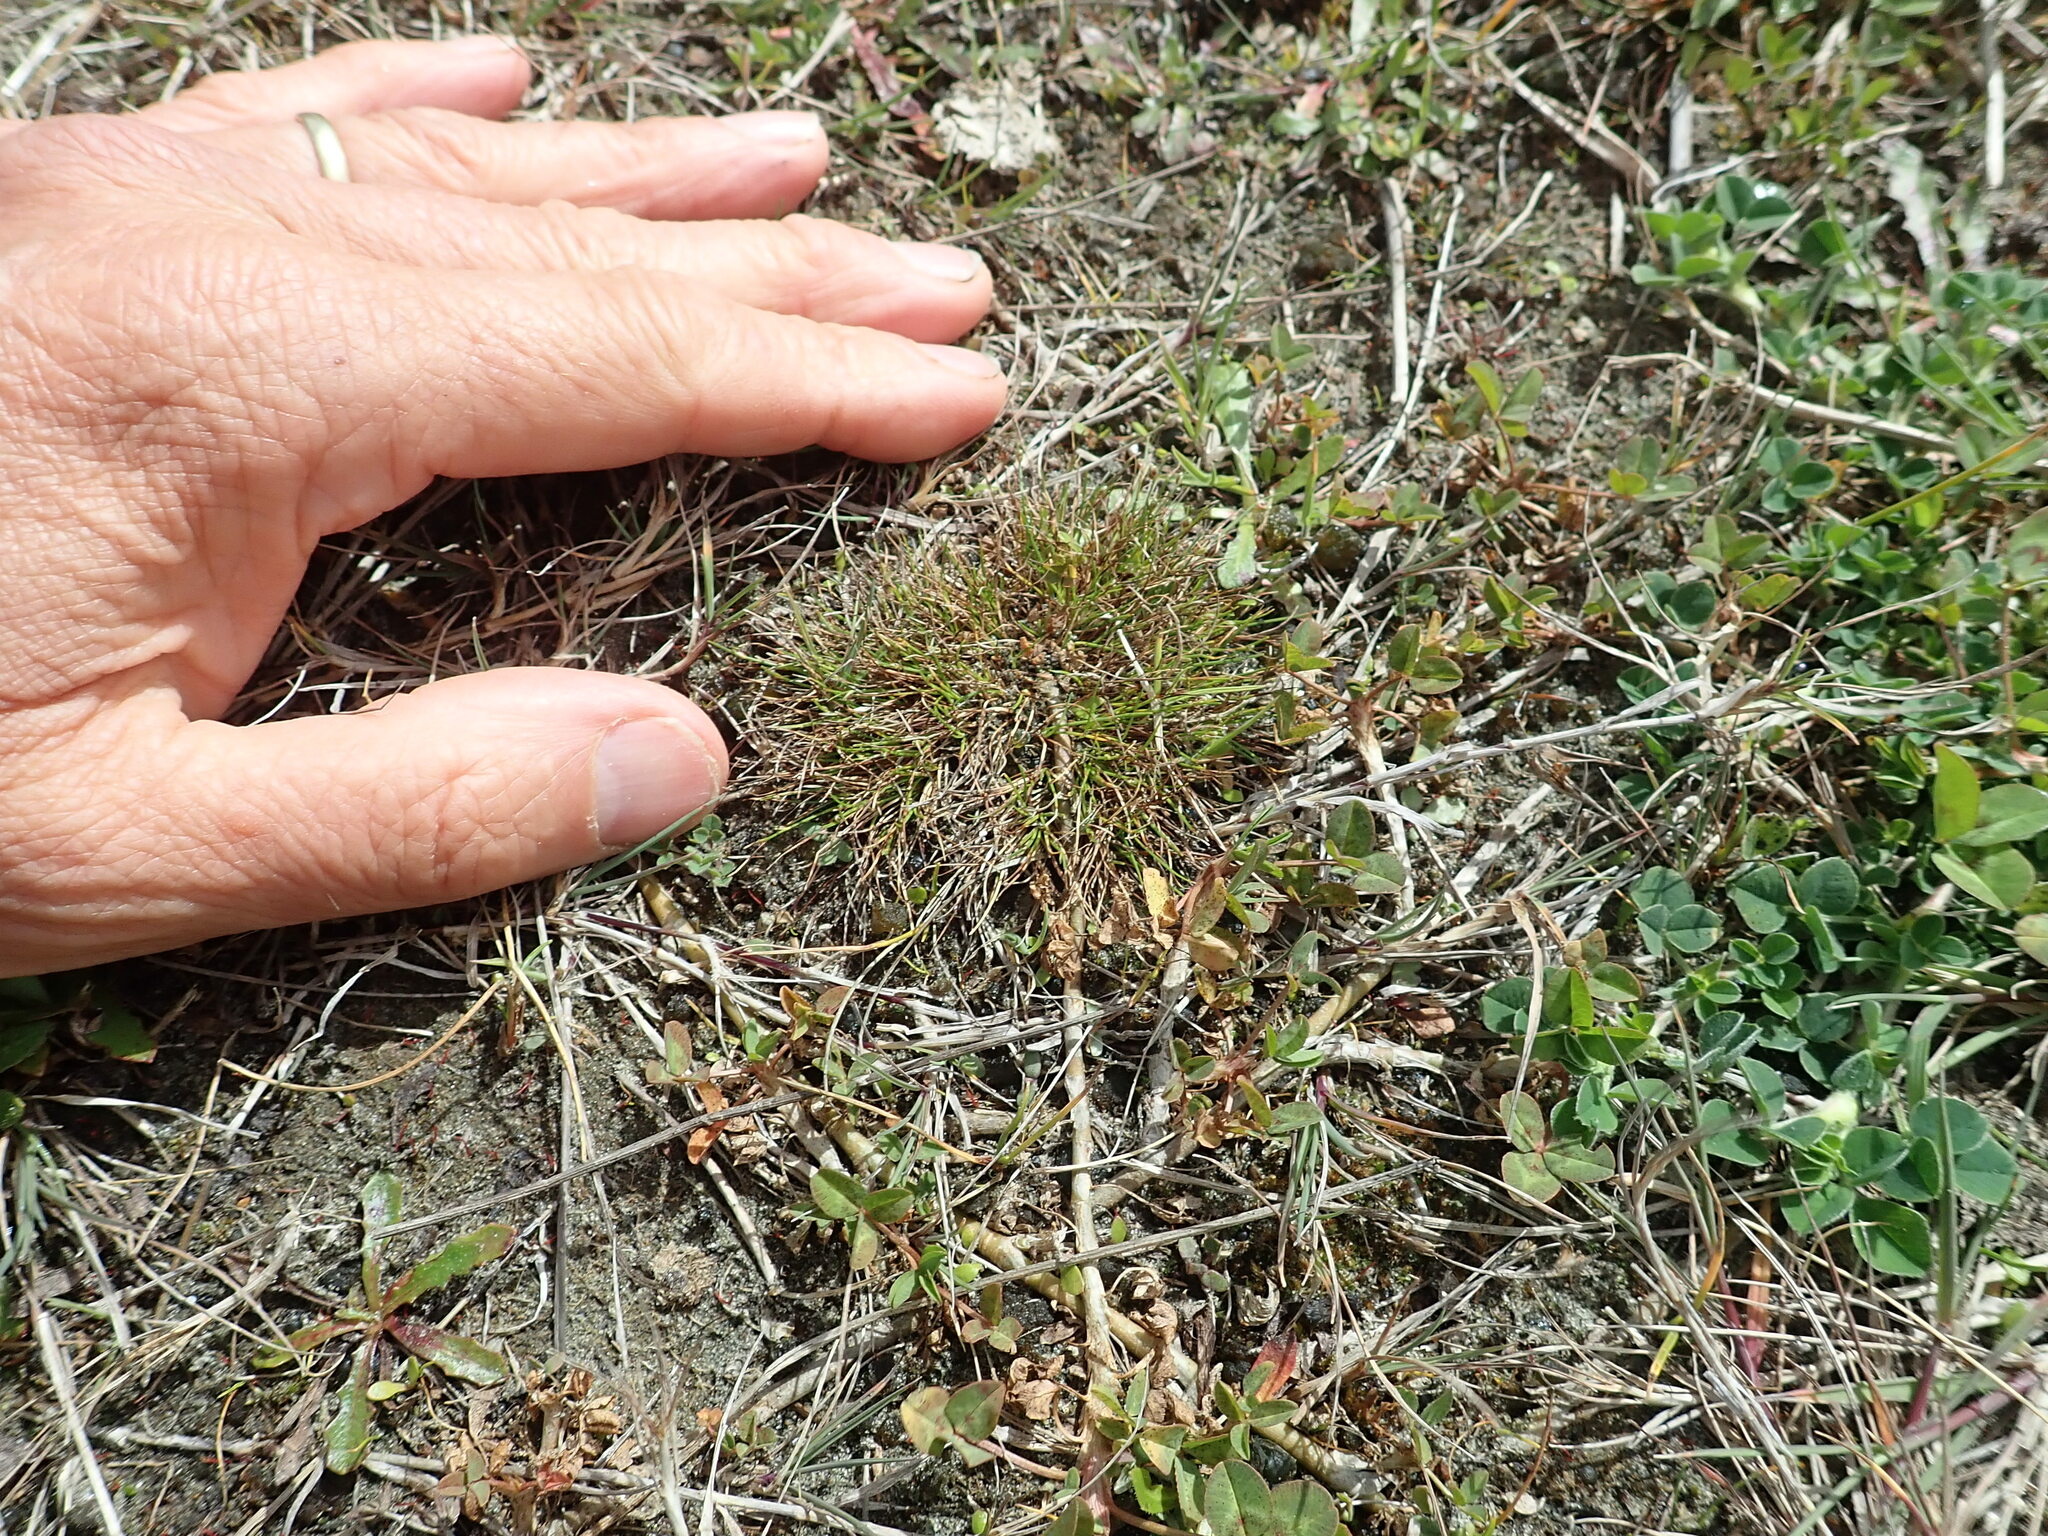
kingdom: Plantae
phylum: Tracheophyta
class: Liliopsida
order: Poales
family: Cyperaceae
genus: Isolepis
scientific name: Isolepis cernua
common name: Slender club-rush
